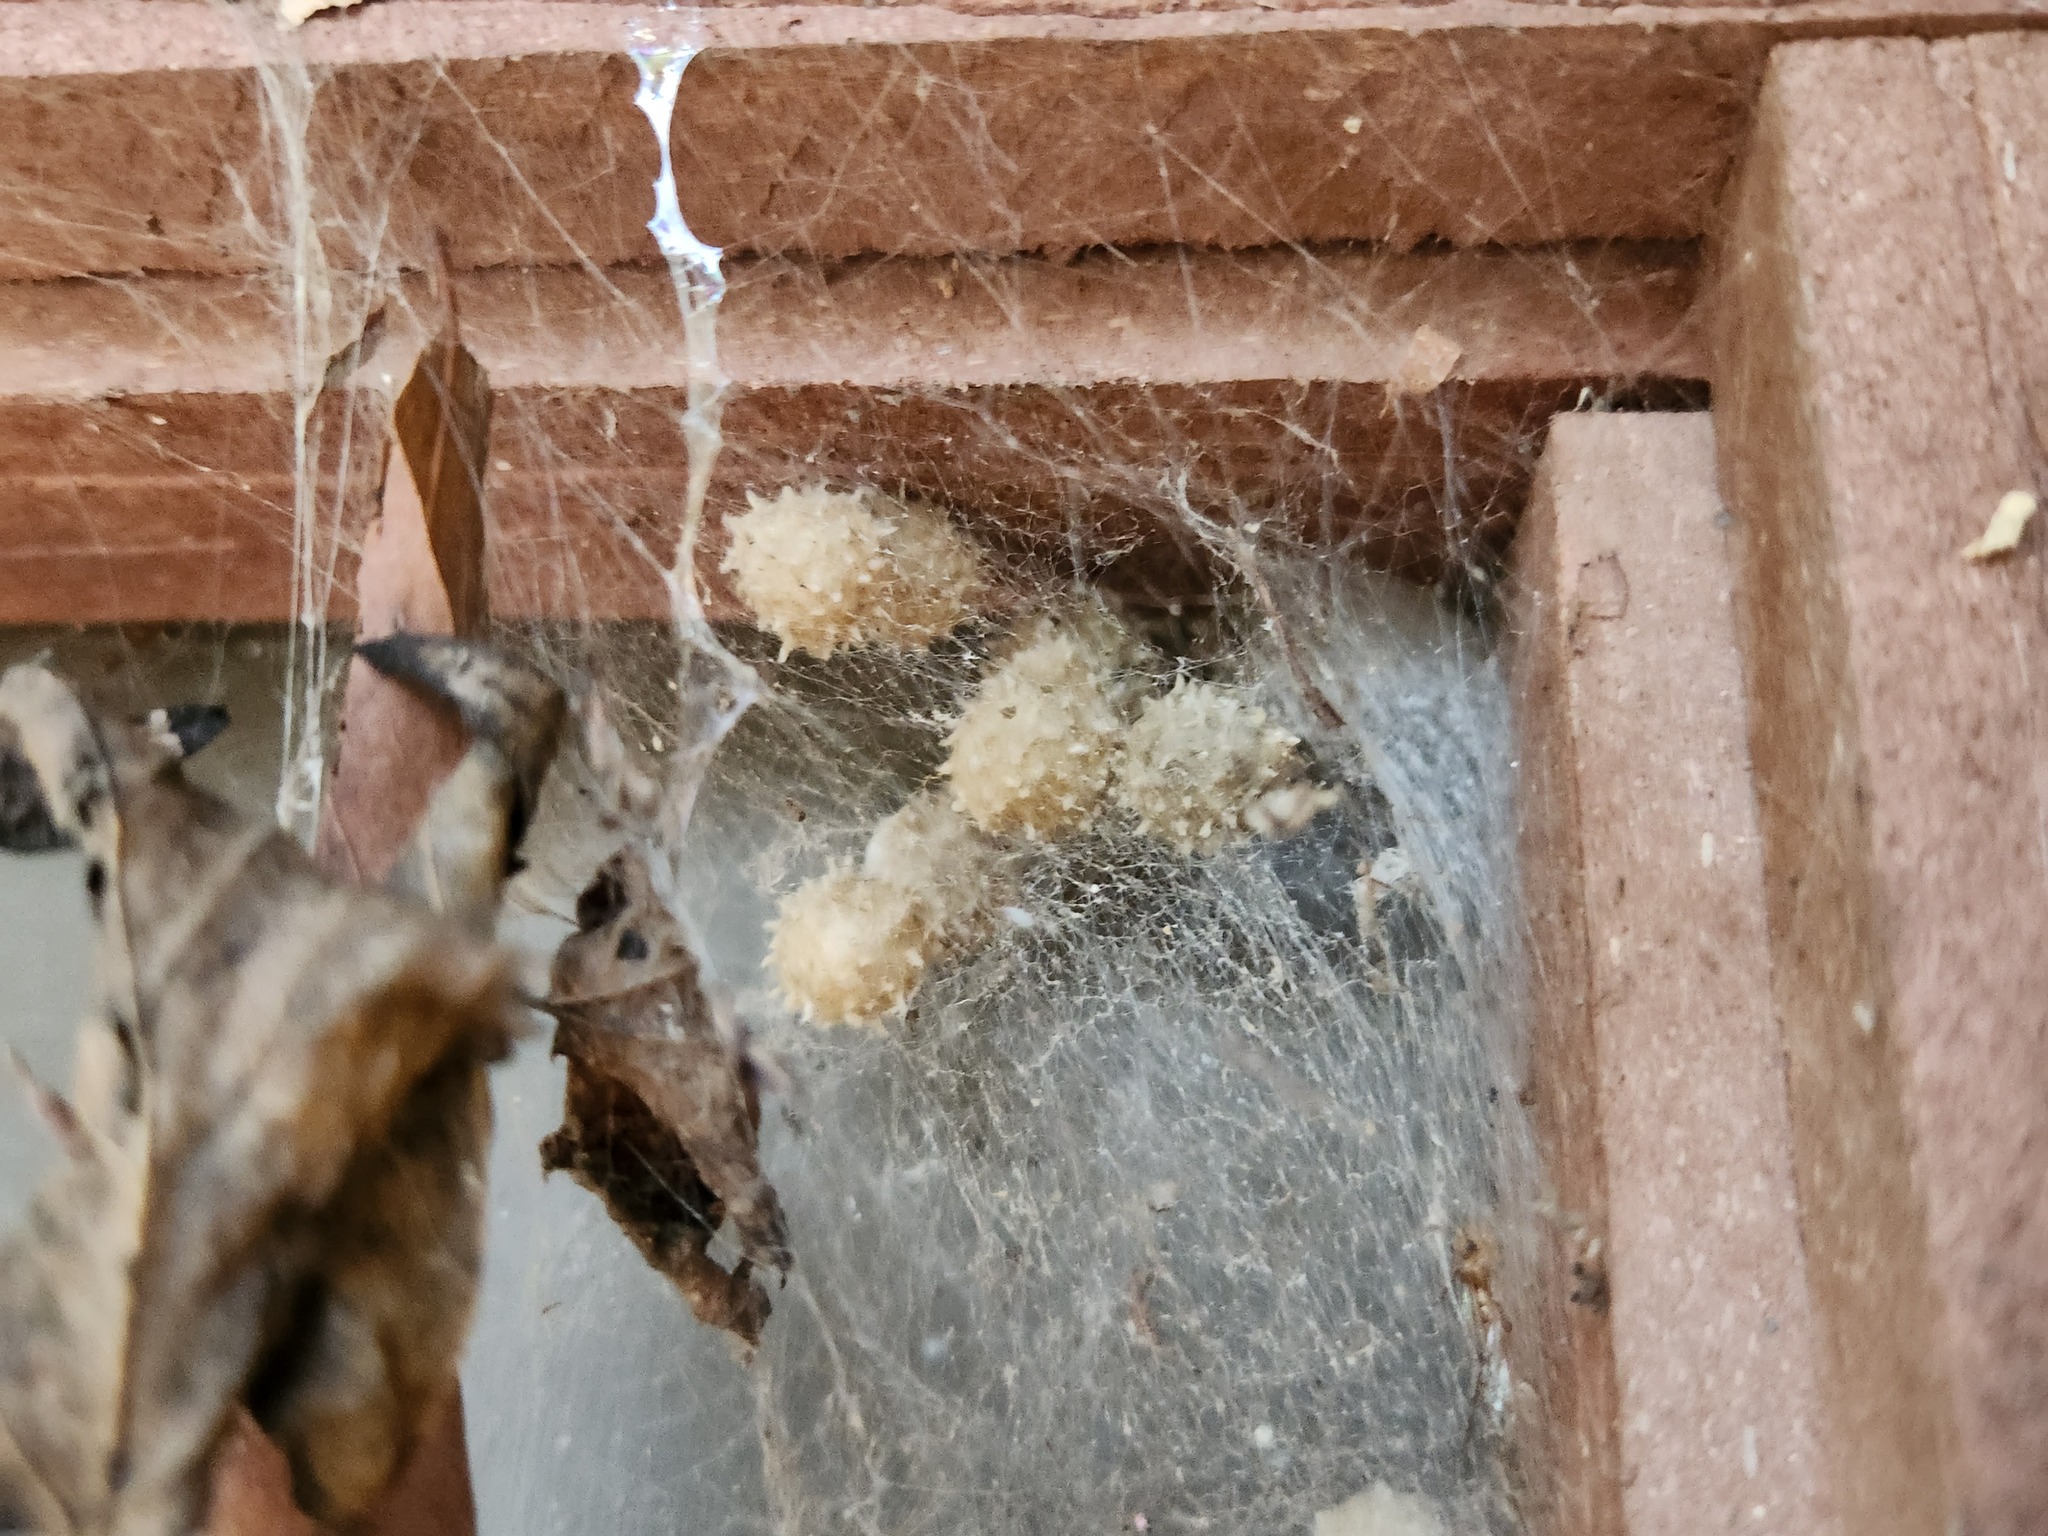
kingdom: Animalia
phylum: Arthropoda
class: Arachnida
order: Araneae
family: Theridiidae
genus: Latrodectus
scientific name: Latrodectus geometricus
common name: Brown widow spider
